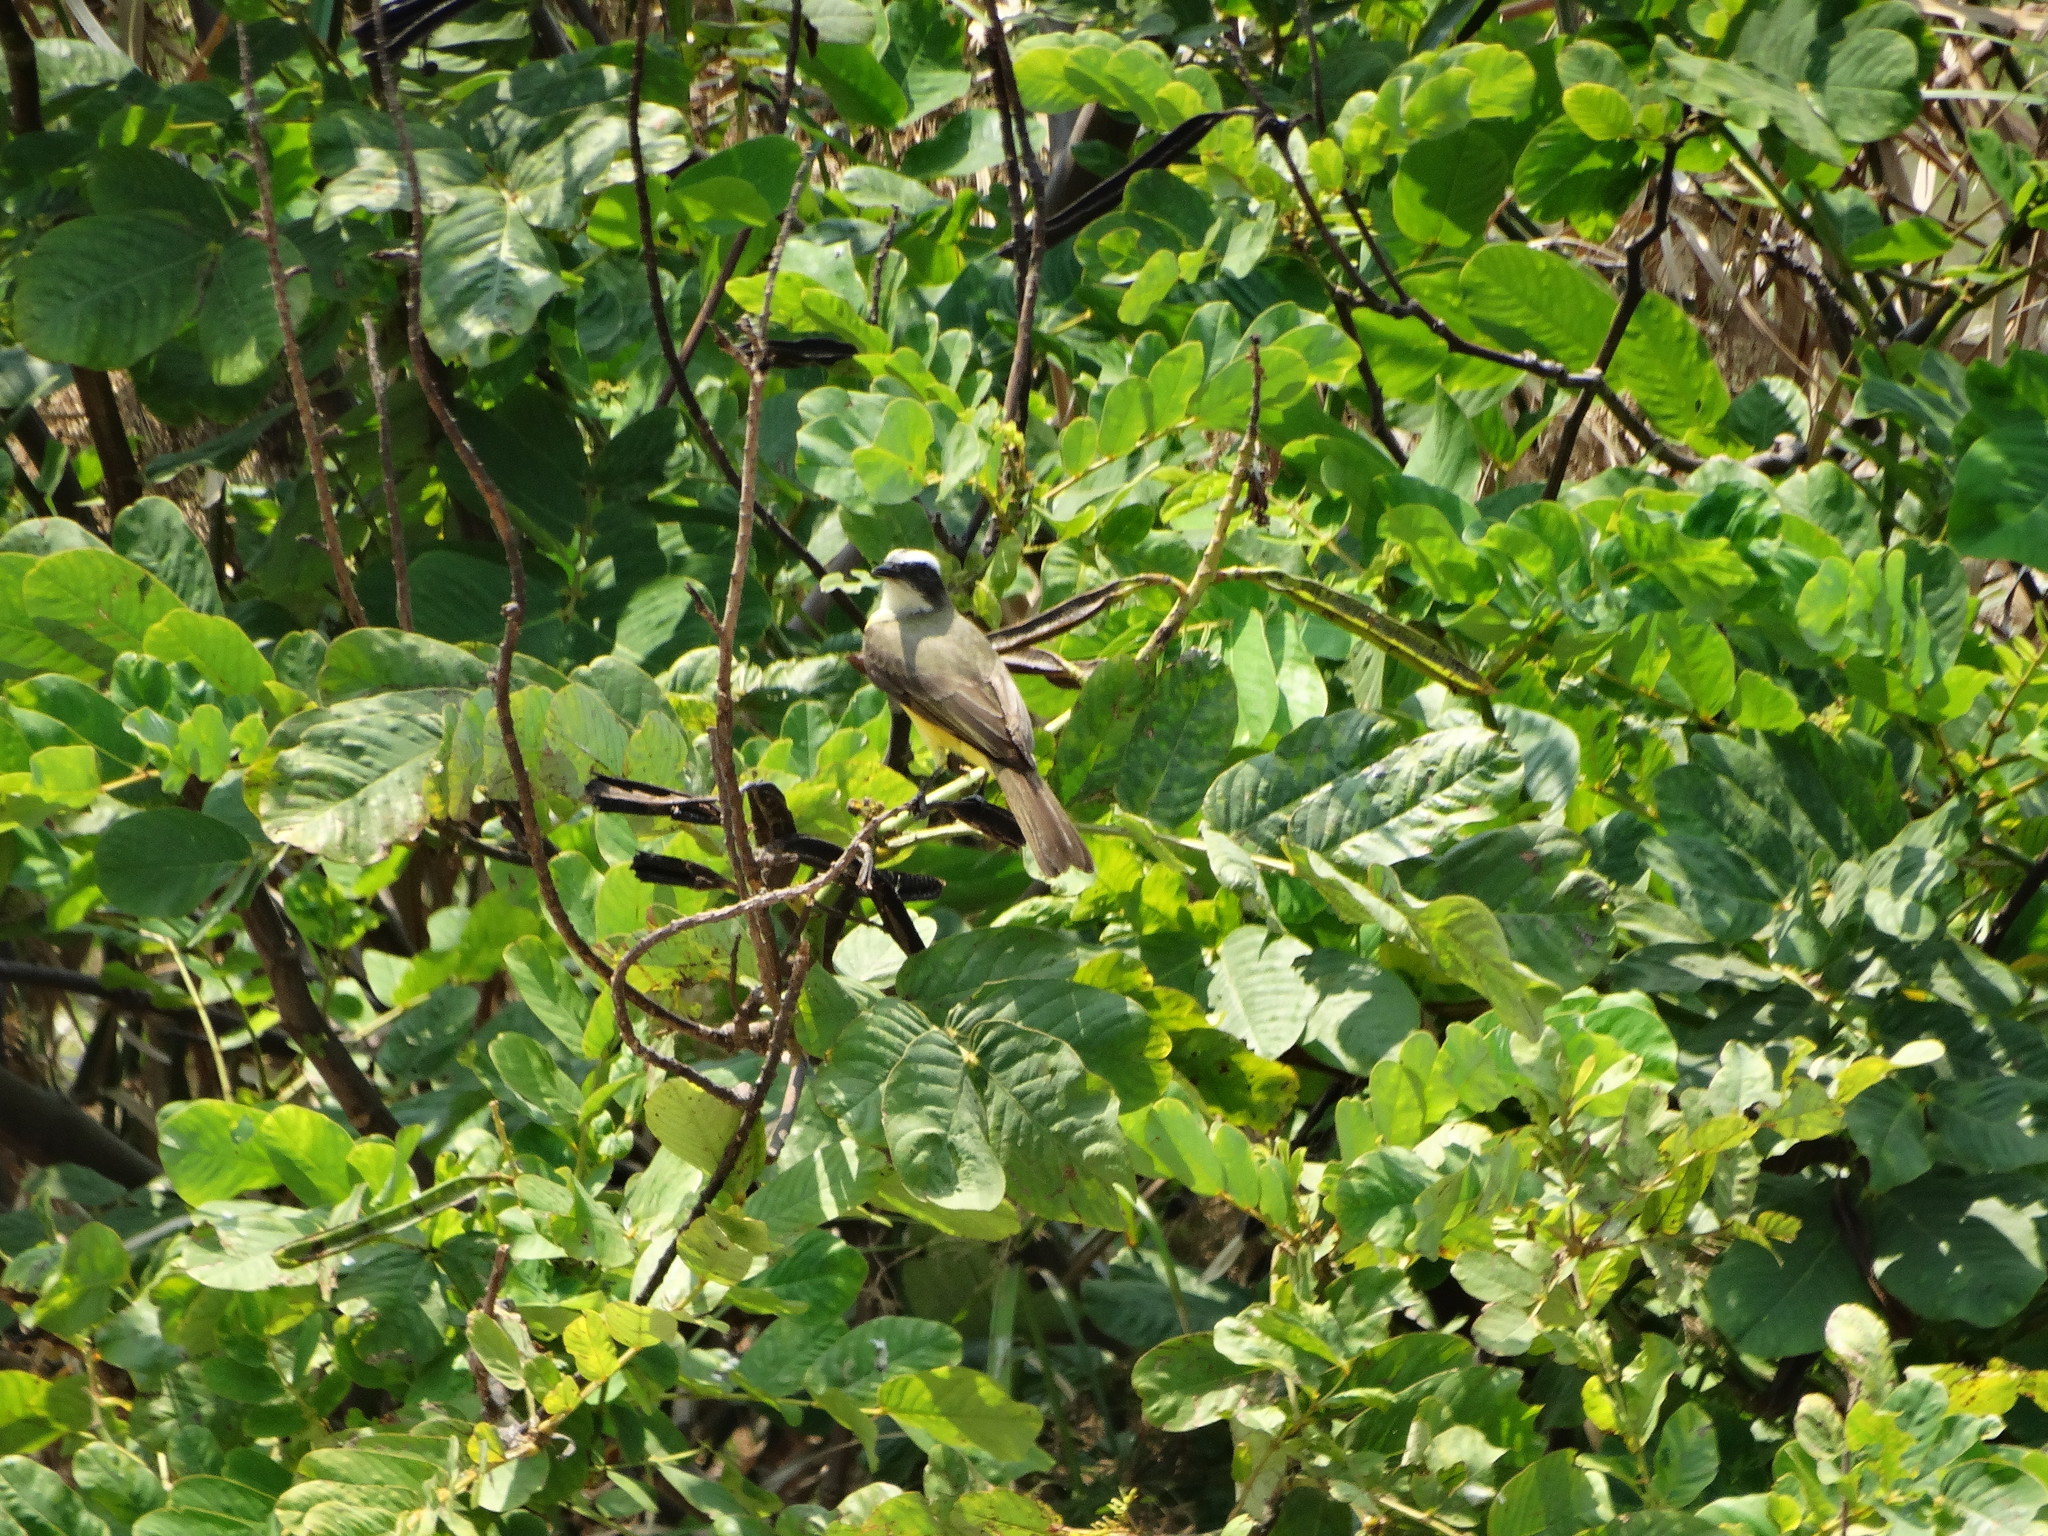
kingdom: Animalia
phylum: Chordata
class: Aves
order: Passeriformes
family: Tyrannidae
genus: Myiozetetes
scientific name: Myiozetetes similis
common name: Social flycatcher
